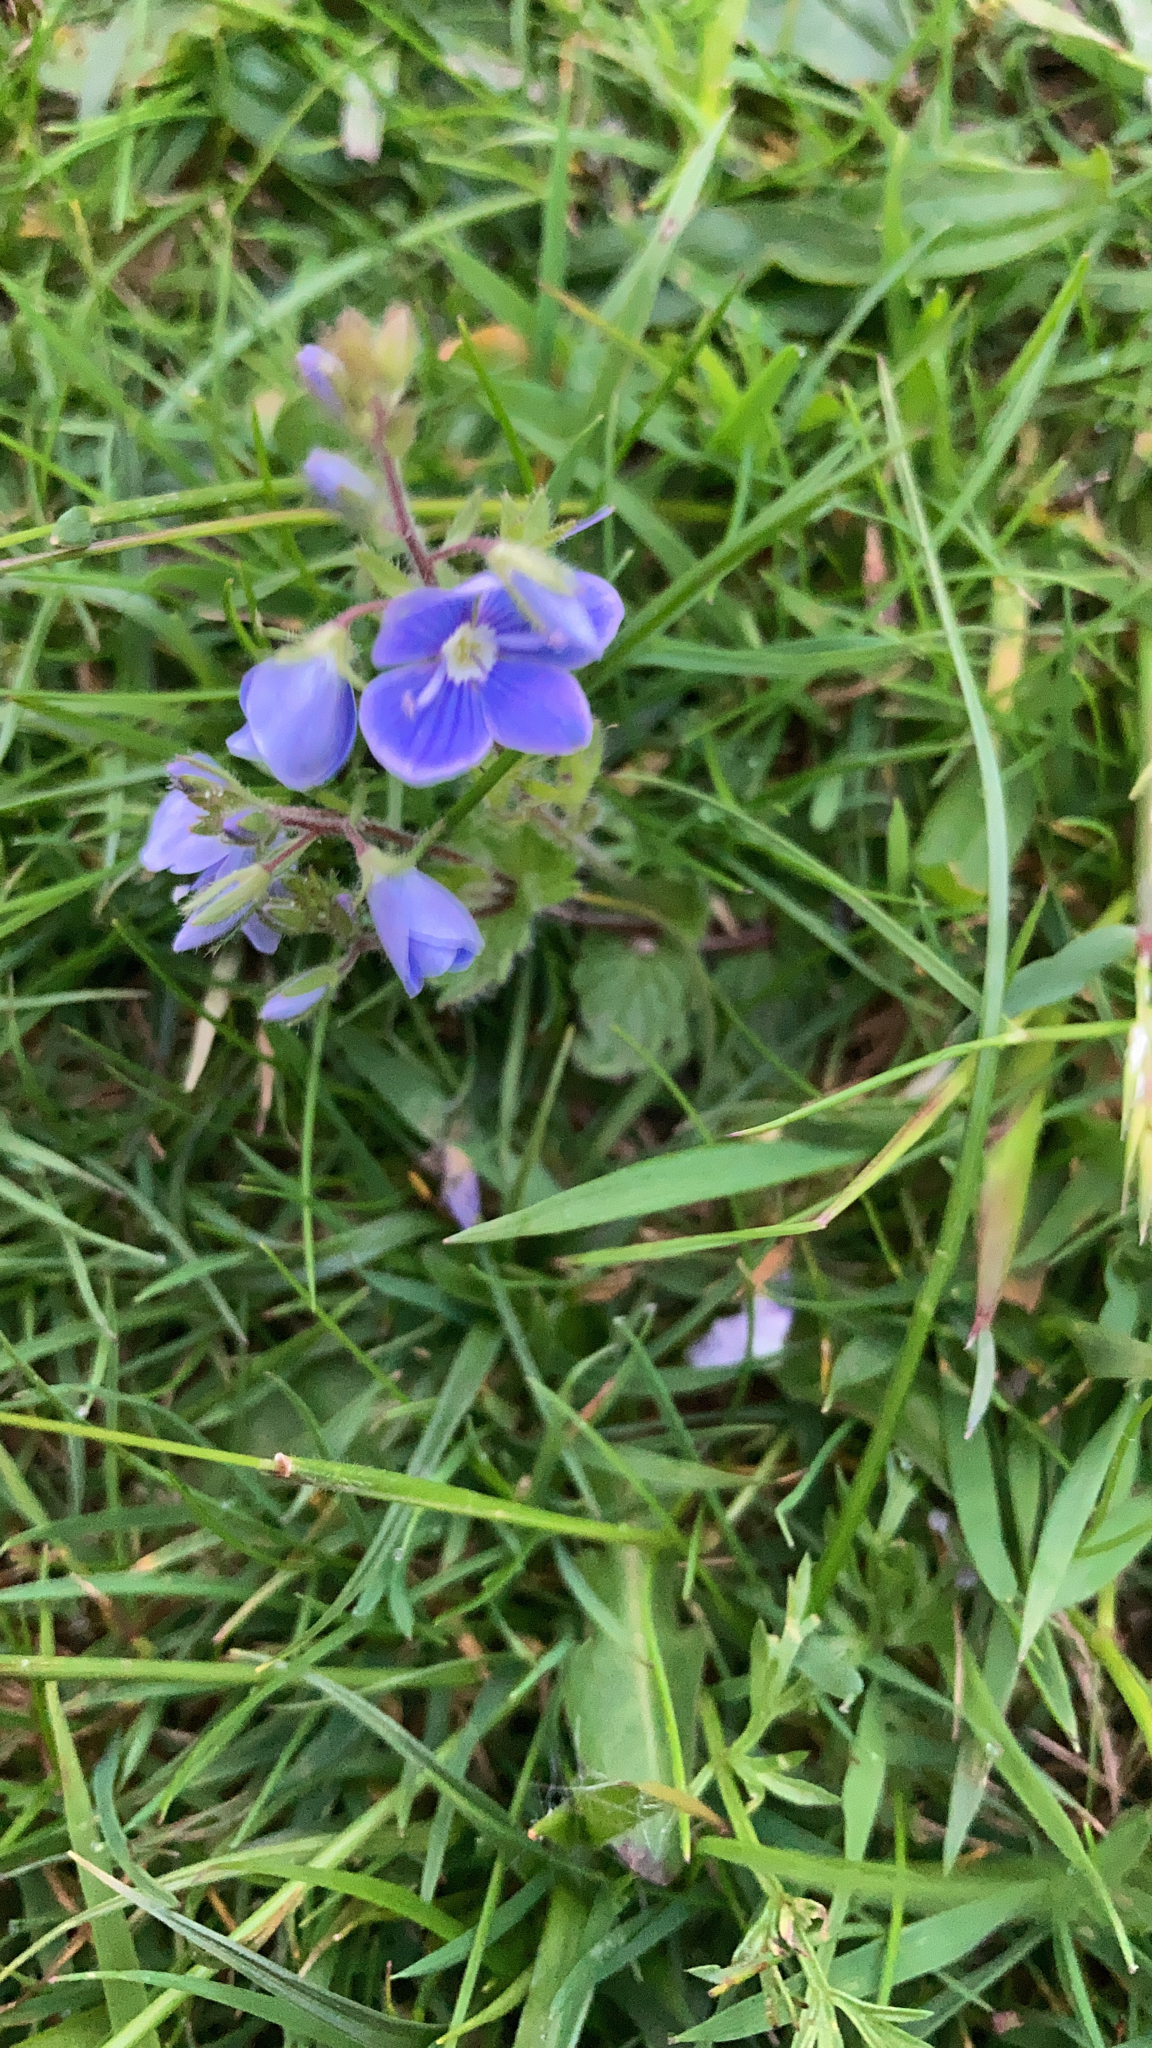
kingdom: Plantae
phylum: Tracheophyta
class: Magnoliopsida
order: Lamiales
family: Plantaginaceae
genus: Veronica
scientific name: Veronica chamaedrys
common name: Germander speedwell
